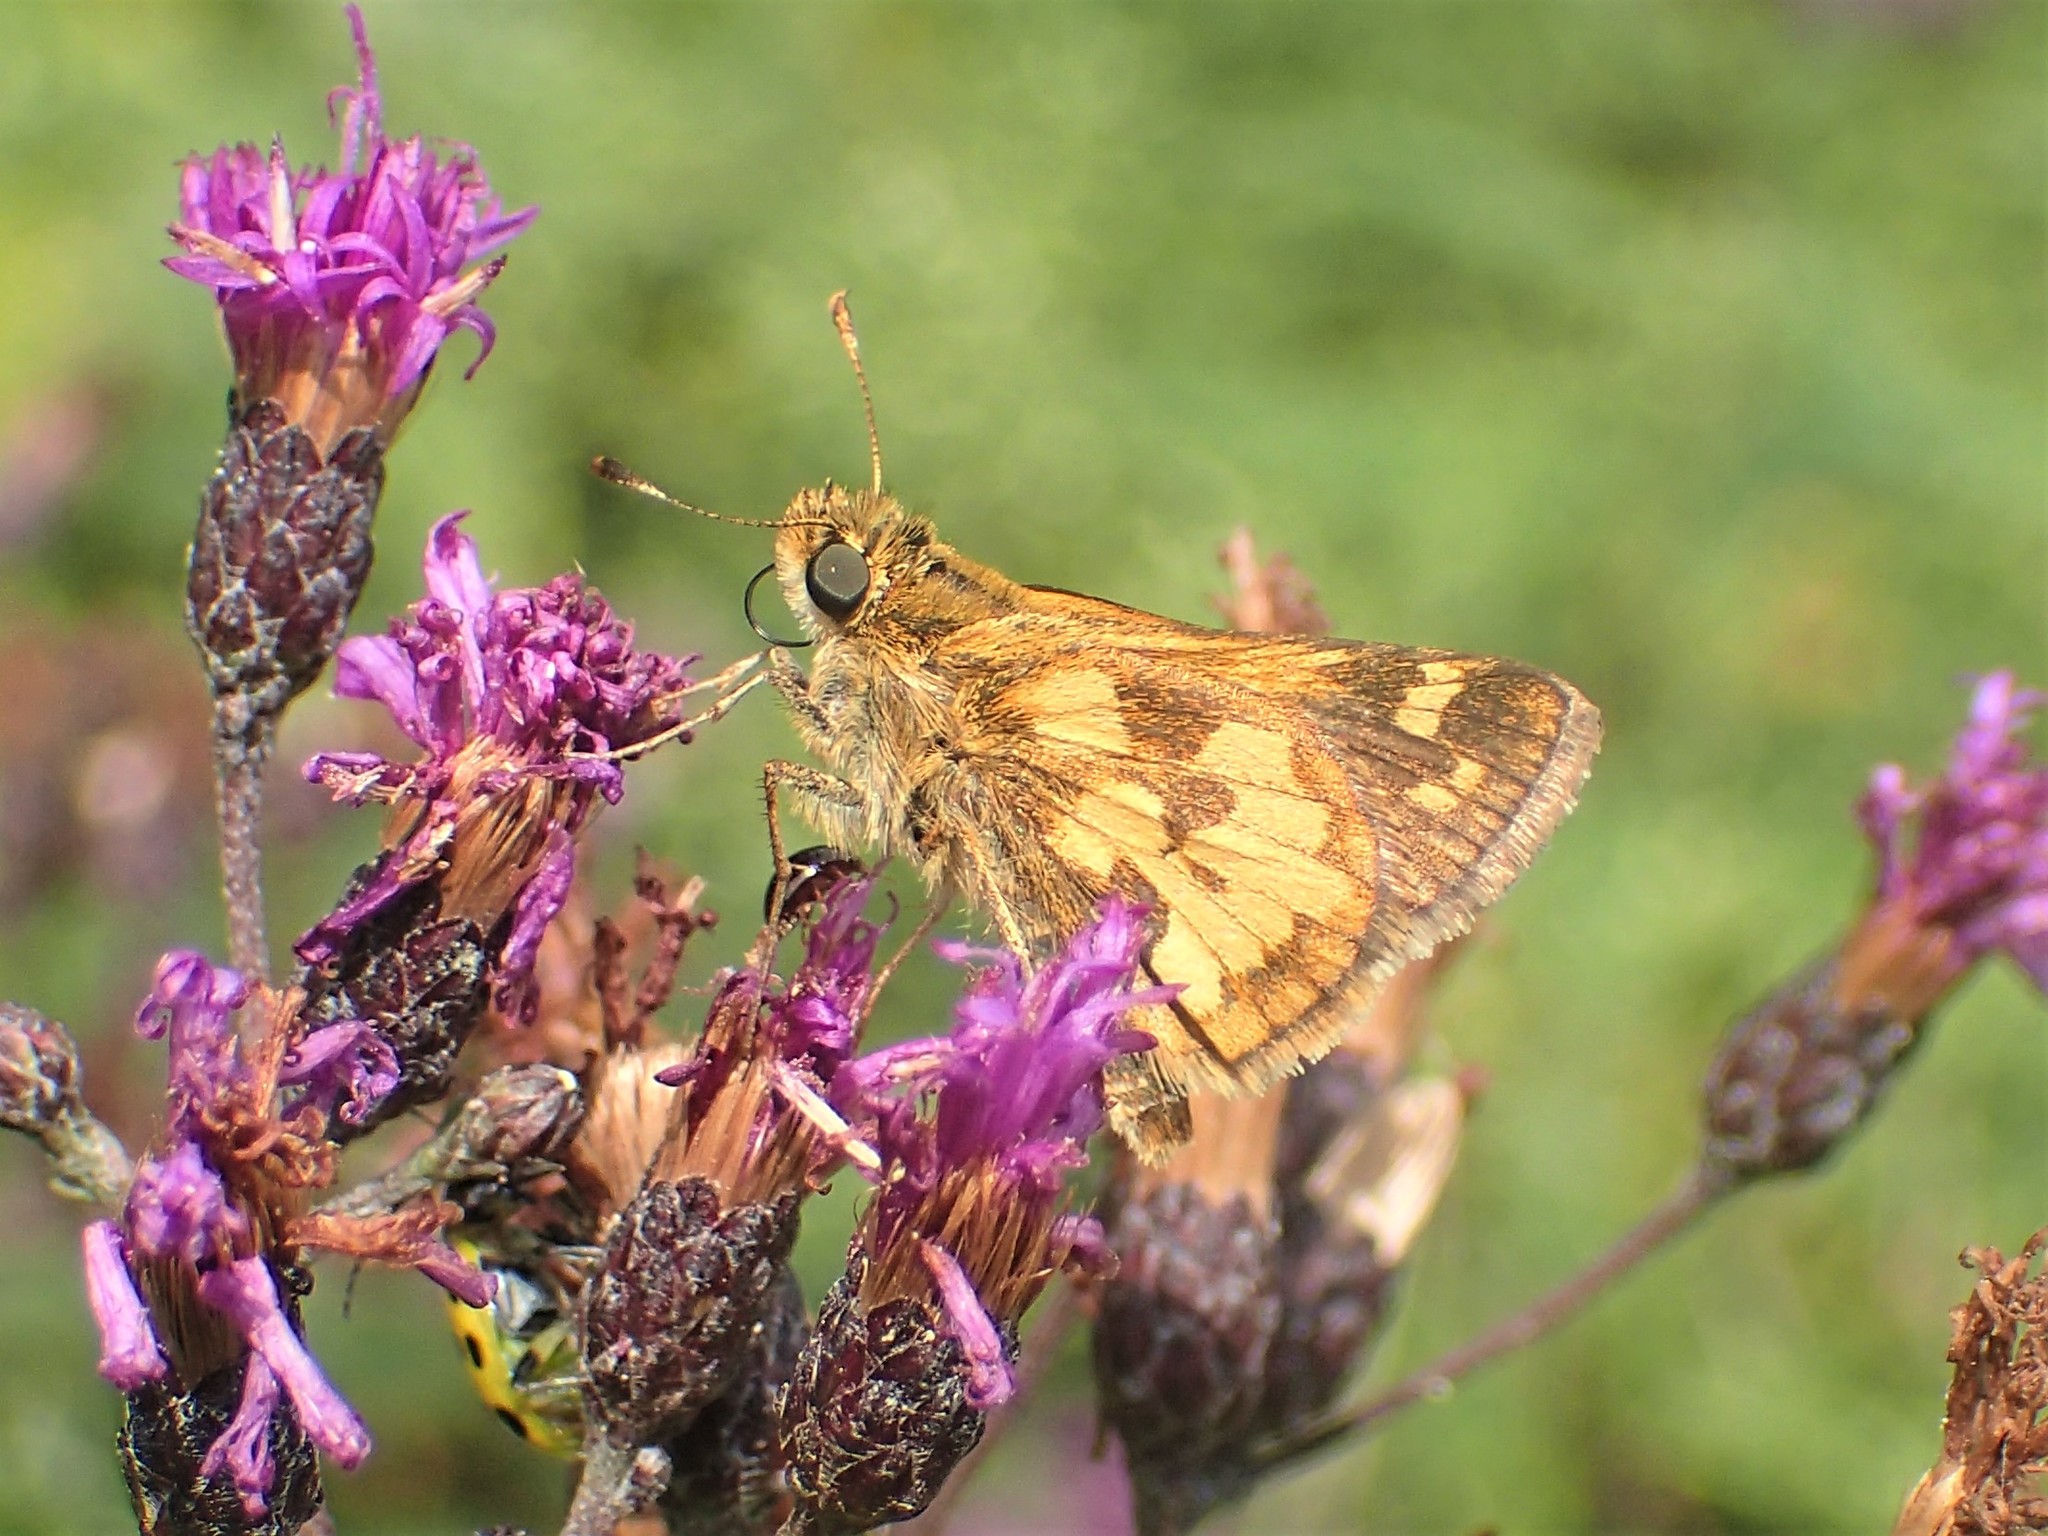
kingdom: Animalia
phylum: Arthropoda
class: Insecta
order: Lepidoptera
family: Hesperiidae
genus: Polites
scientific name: Polites coras
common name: Peck's skipper
